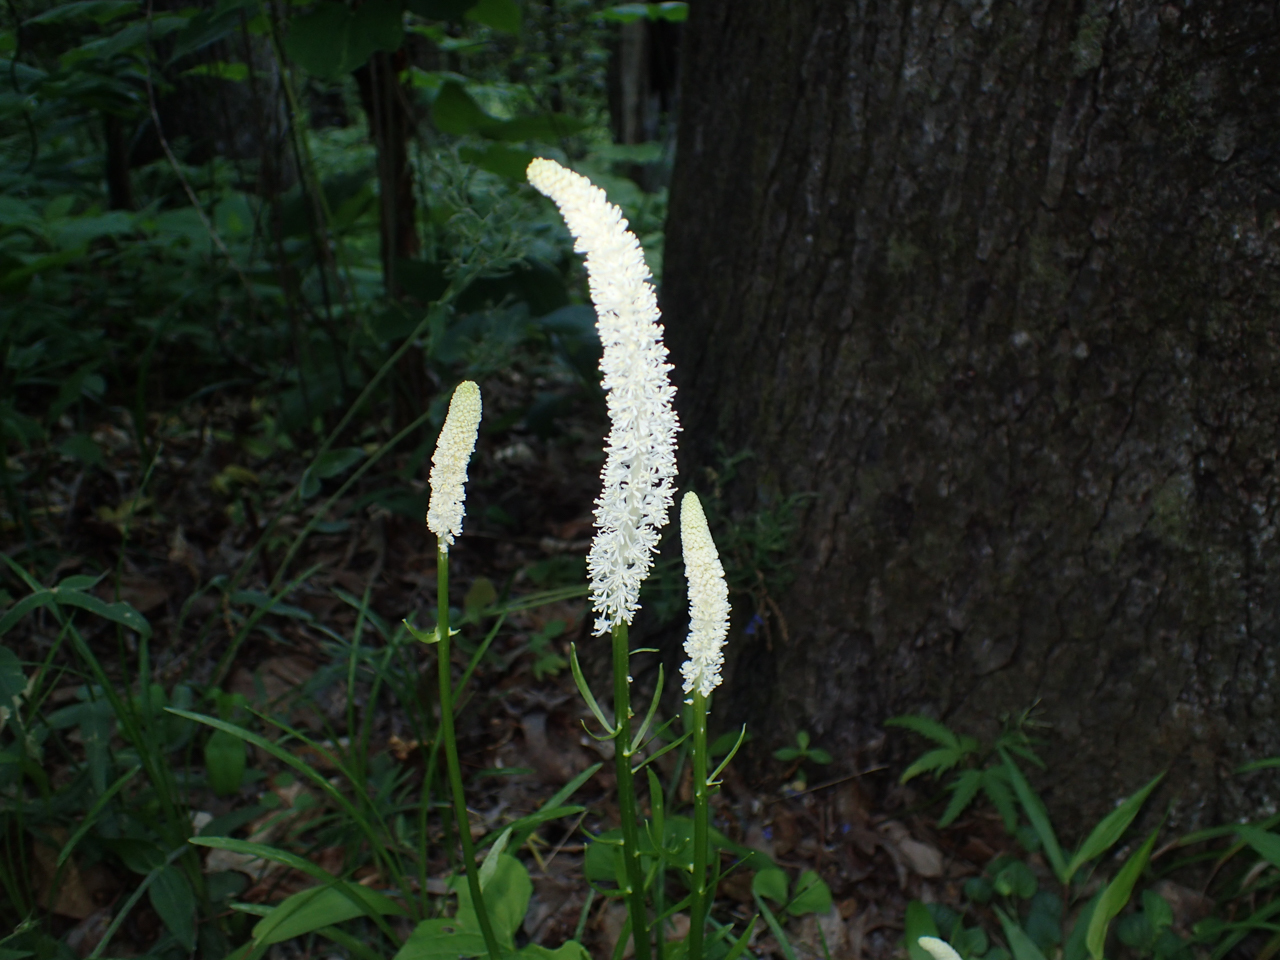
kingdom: Plantae
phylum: Tracheophyta
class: Liliopsida
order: Liliales
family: Melanthiaceae
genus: Chamaelirium
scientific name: Chamaelirium luteum
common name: Fairy-wand
